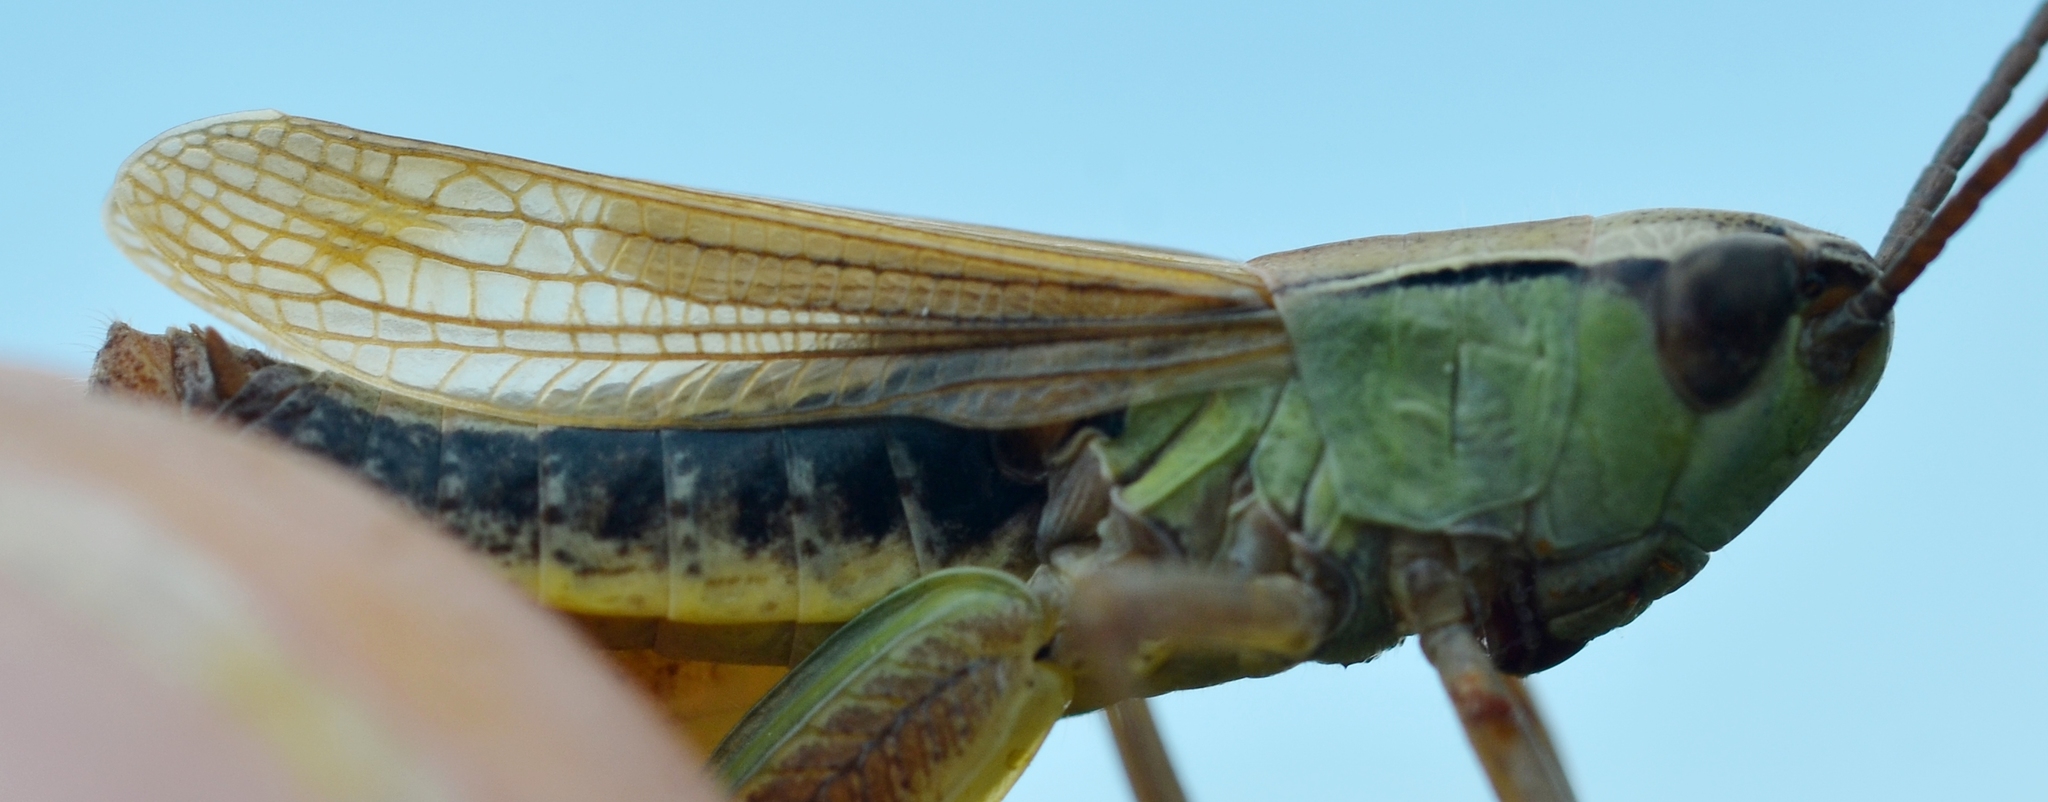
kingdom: Animalia
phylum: Arthropoda
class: Insecta
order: Orthoptera
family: Acrididae
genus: Pseudochorthippus
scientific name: Pseudochorthippus parallelus
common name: Meadow grasshopper
